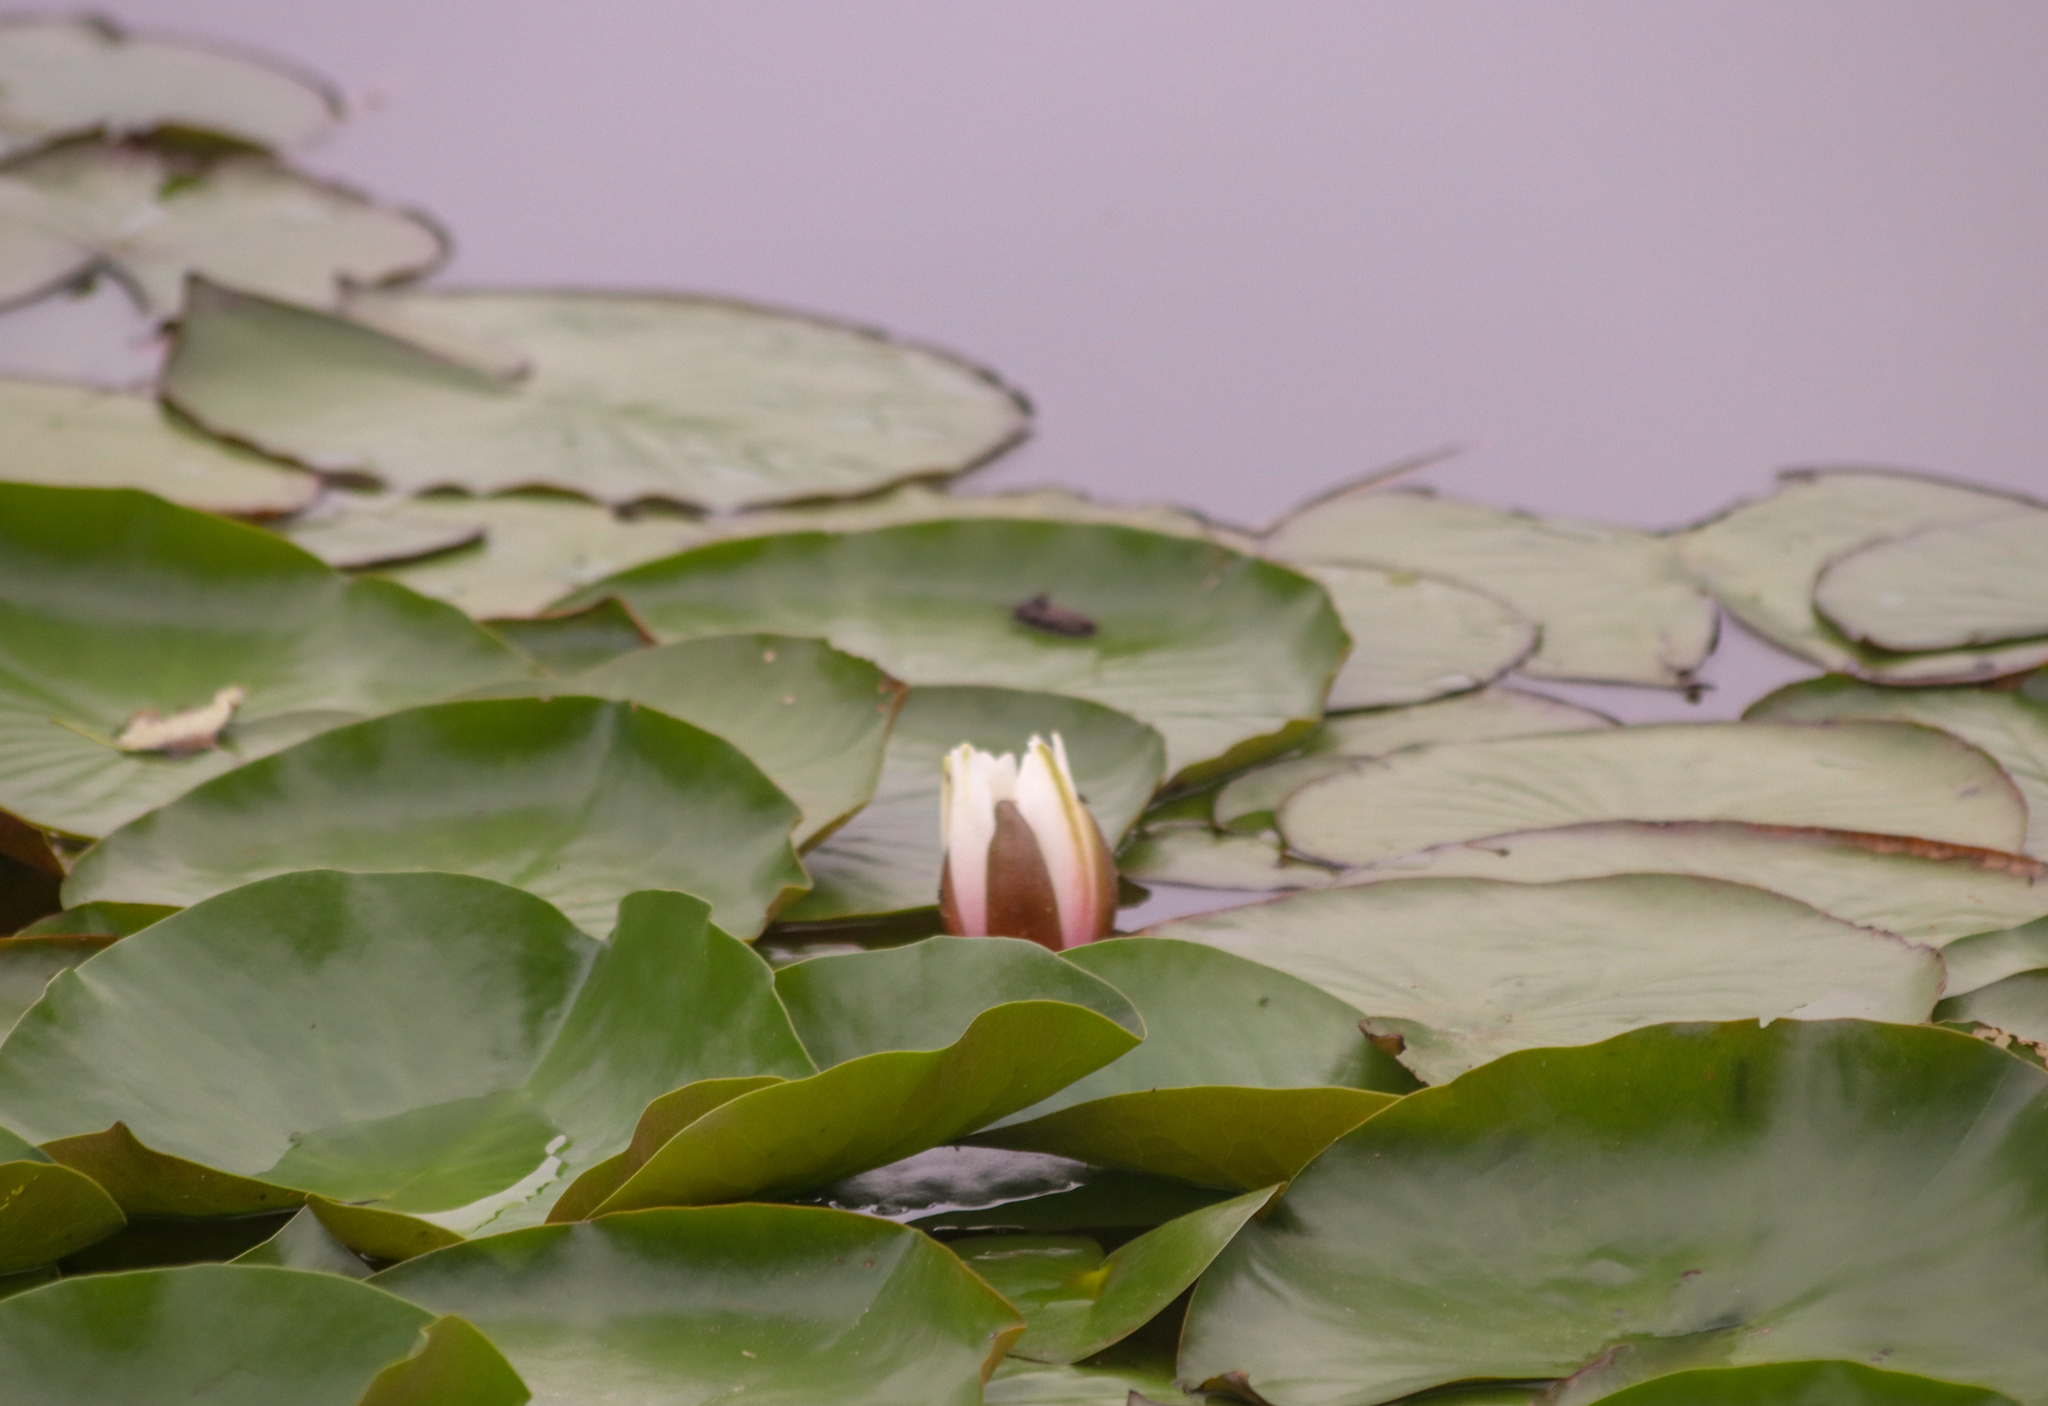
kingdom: Plantae
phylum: Tracheophyta
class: Magnoliopsida
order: Nymphaeales
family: Nymphaeaceae
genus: Nymphaea
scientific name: Nymphaea odorata
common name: Fragrant water-lily
